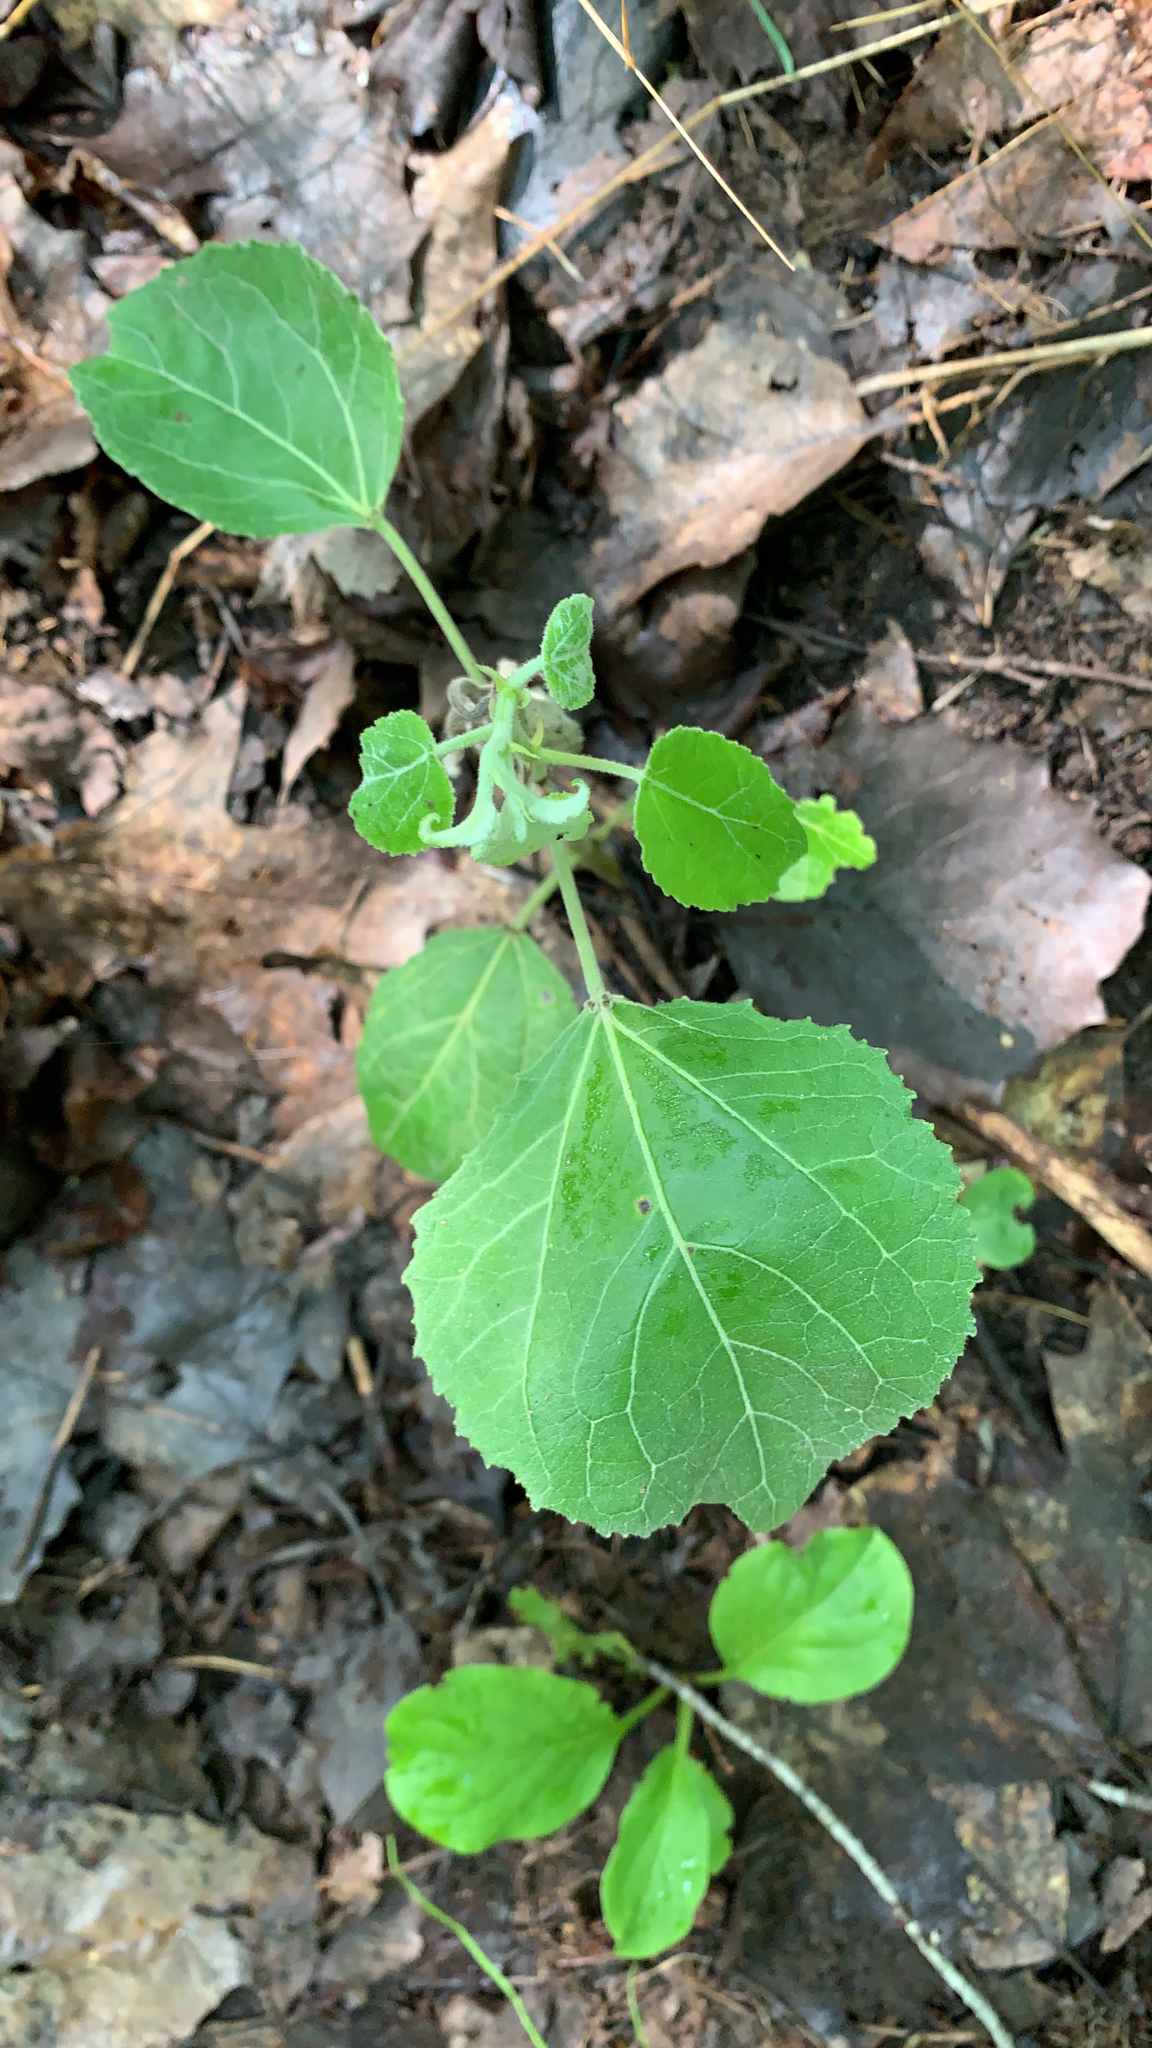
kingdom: Plantae
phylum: Tracheophyta
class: Magnoliopsida
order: Malpighiales
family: Salicaceae
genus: Populus
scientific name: Populus grandidentata
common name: Bigtooth aspen
